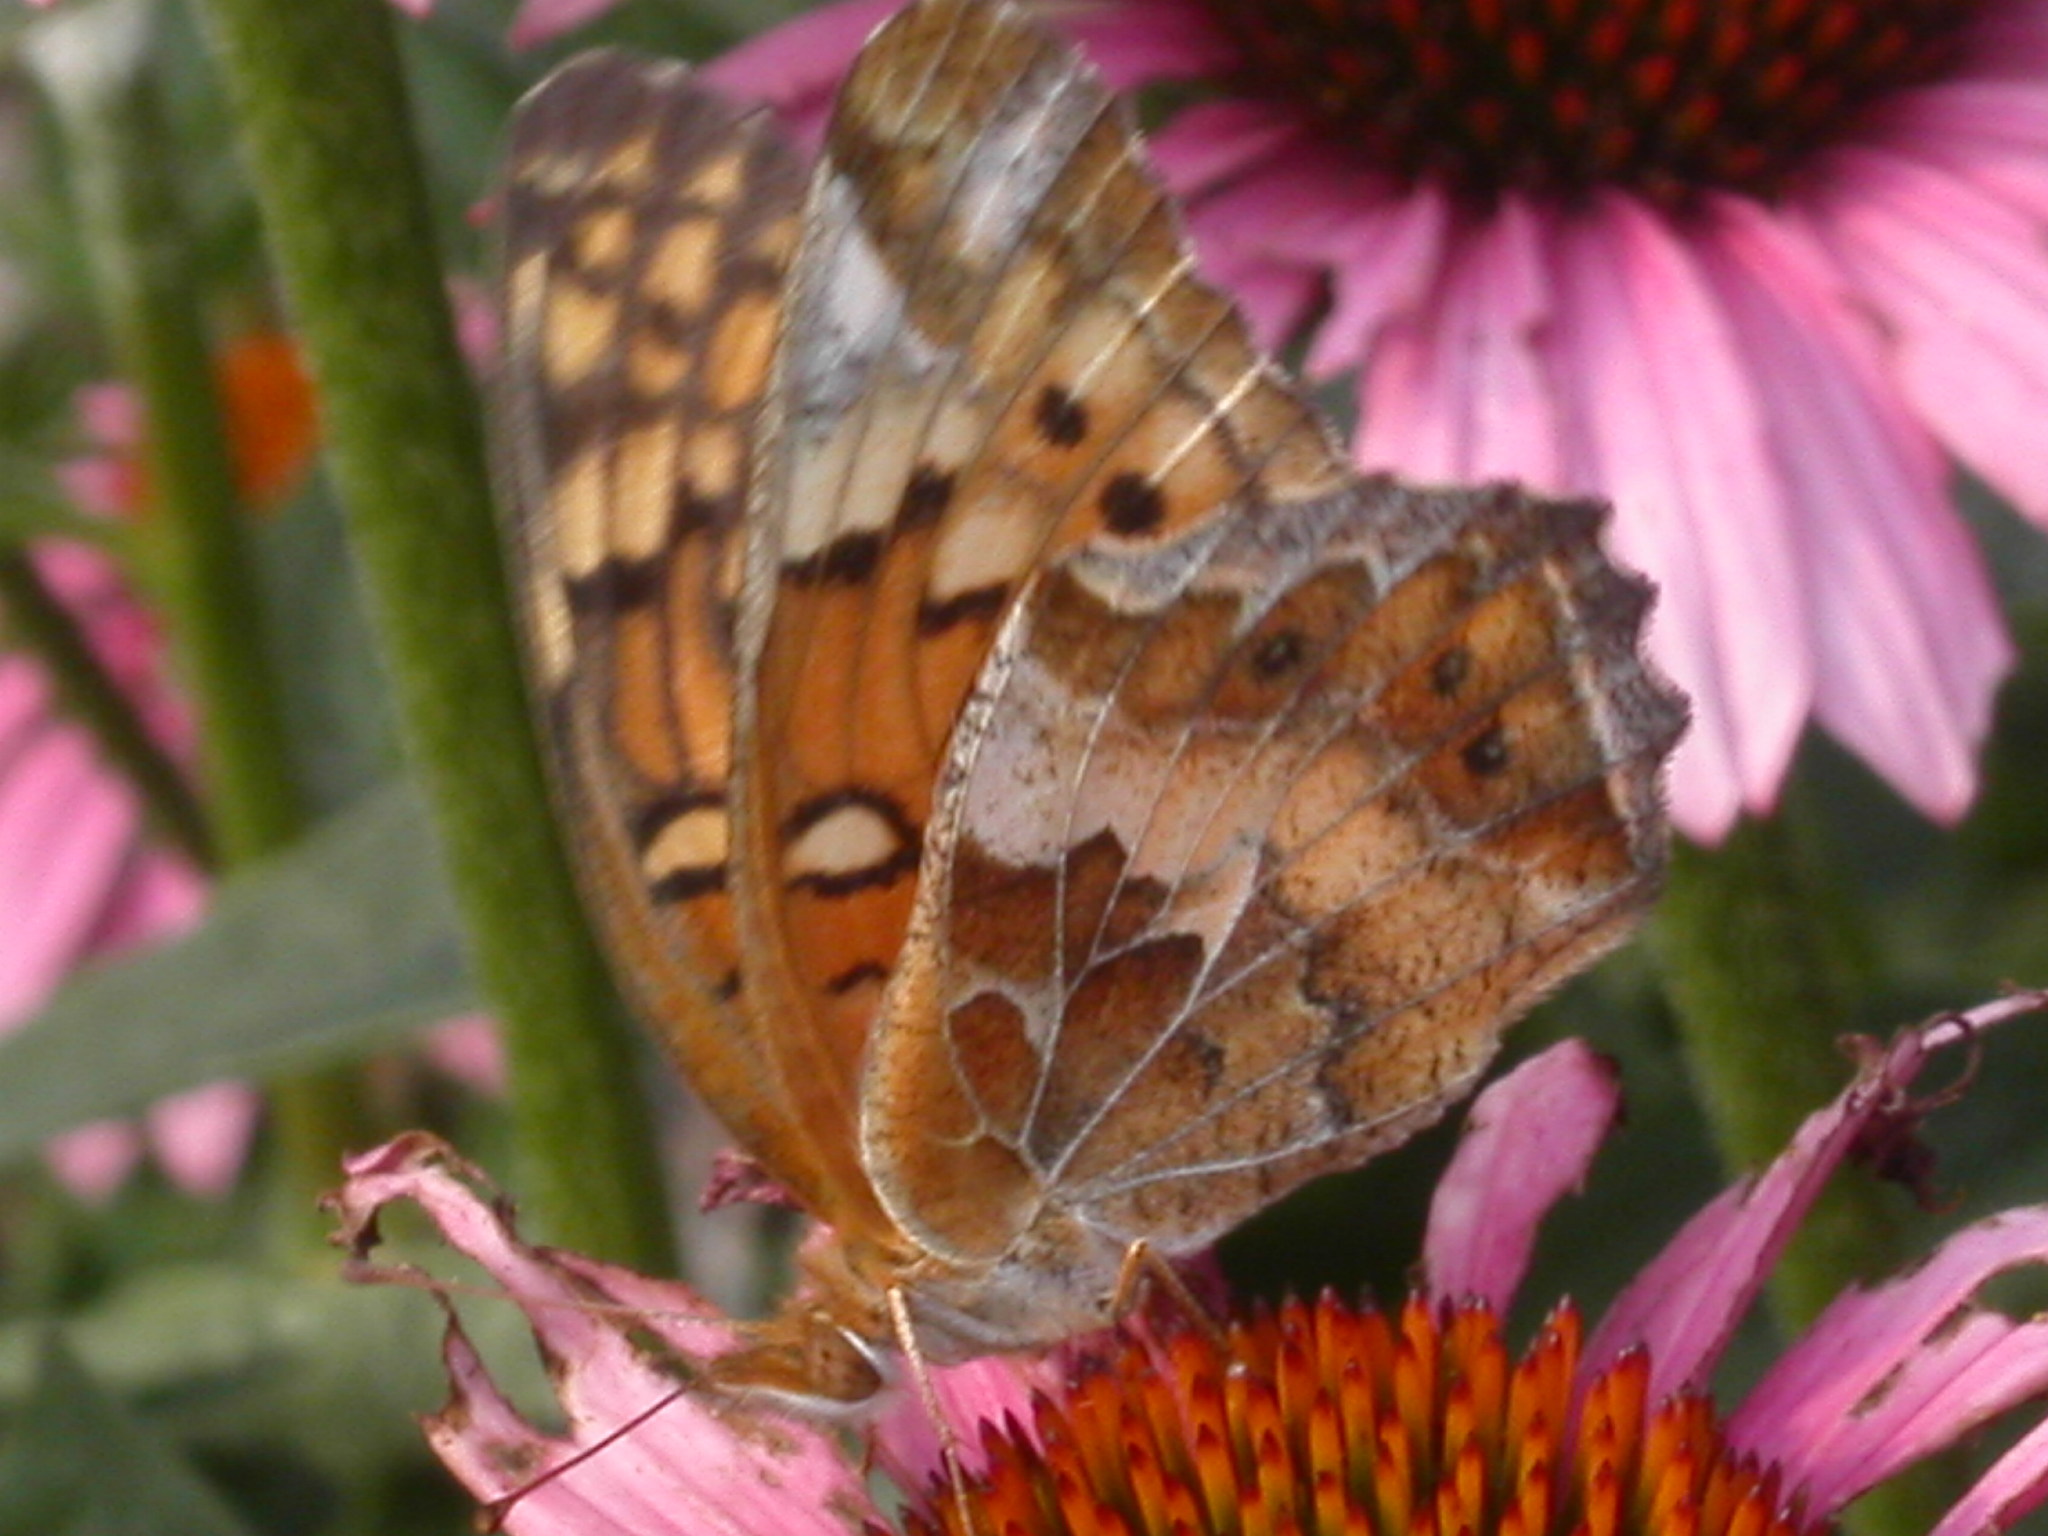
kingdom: Animalia
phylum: Arthropoda
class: Insecta
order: Lepidoptera
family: Nymphalidae
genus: Euptoieta
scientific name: Euptoieta claudia
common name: Variegated fritillary
